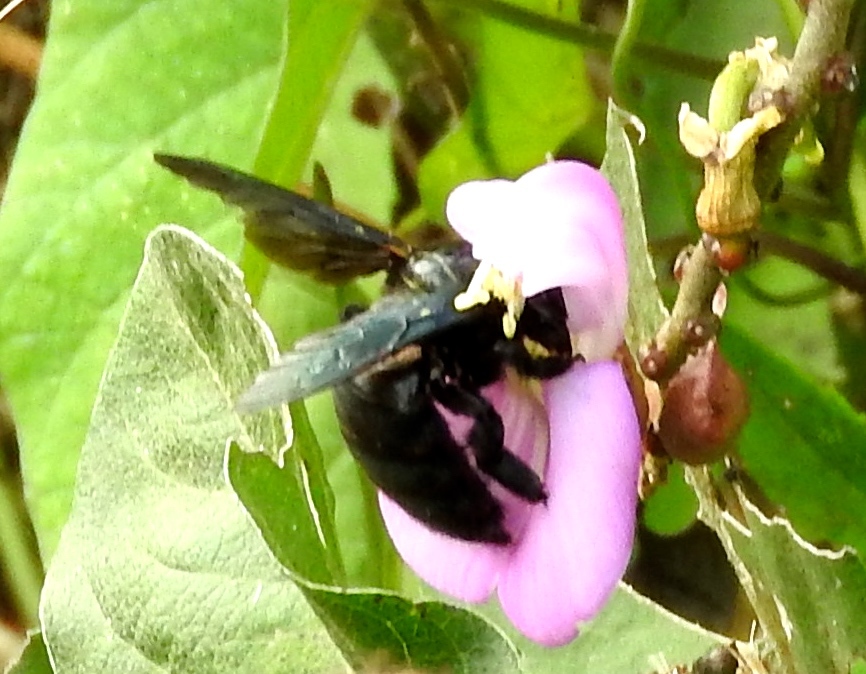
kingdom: Animalia
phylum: Arthropoda
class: Insecta
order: Hymenoptera
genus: Neoxylocopa
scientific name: Neoxylocopa
